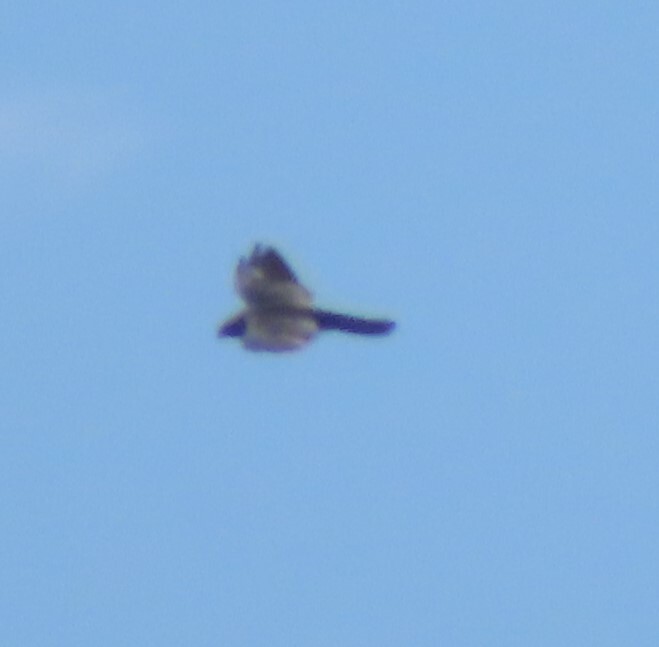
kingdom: Animalia
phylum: Chordata
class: Aves
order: Accipitriformes
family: Accipitridae
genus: Ictinia
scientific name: Ictinia mississippiensis
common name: Mississippi kite
